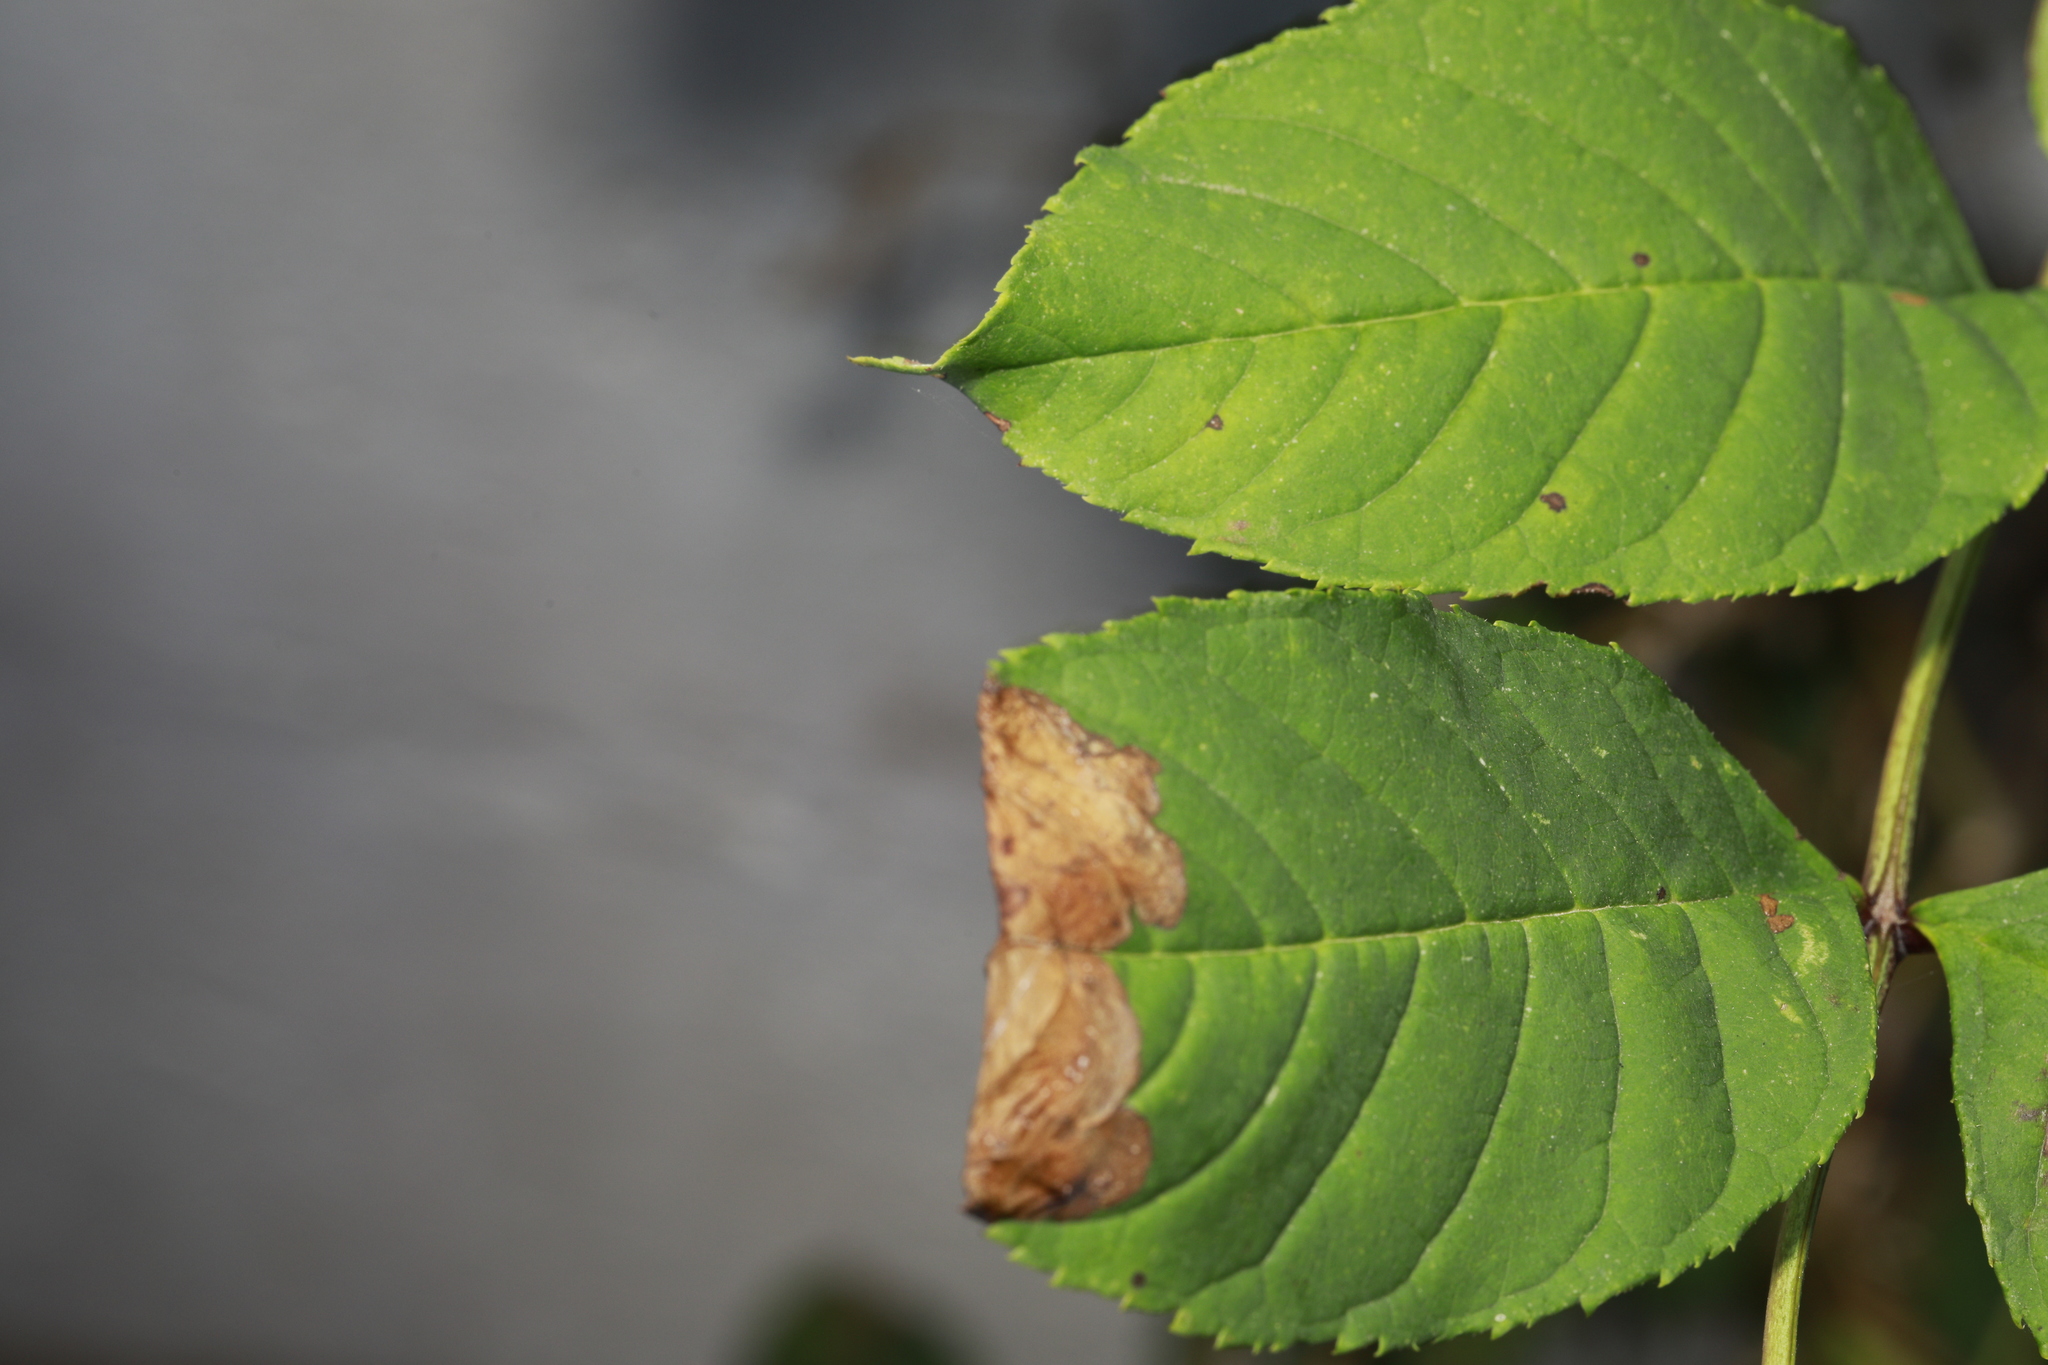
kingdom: Animalia
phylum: Arthropoda
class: Insecta
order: Lepidoptera
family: Gracillariidae
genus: Gracillaria
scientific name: Gracillaria syringella
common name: Common slender
